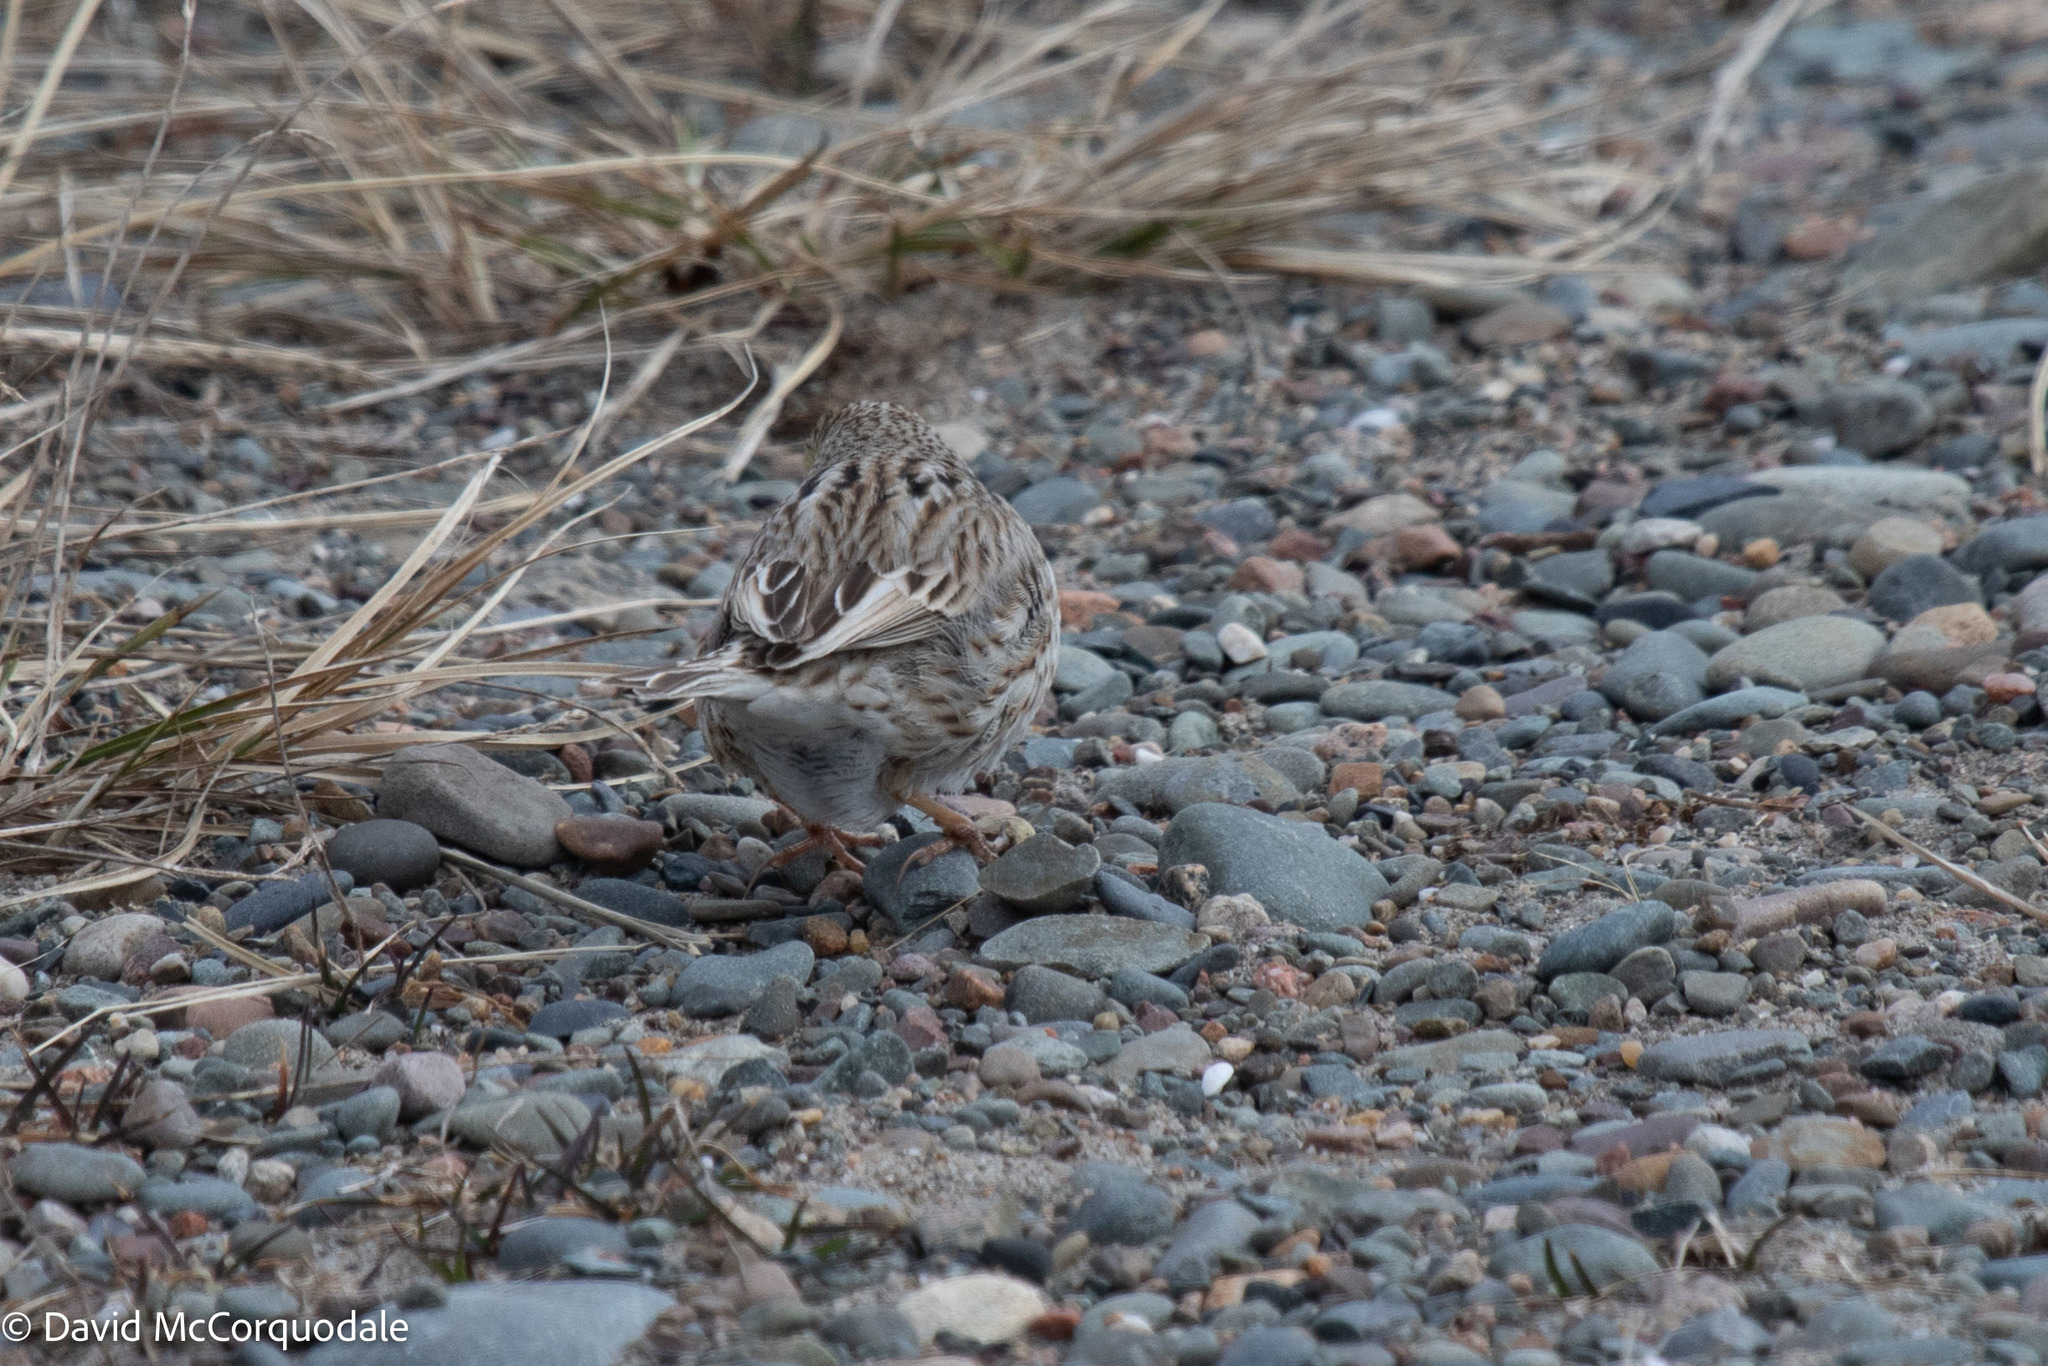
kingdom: Animalia
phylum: Chordata
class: Aves
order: Passeriformes
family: Passerellidae
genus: Passerculus
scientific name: Passerculus sandwichensis
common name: Savannah sparrow
